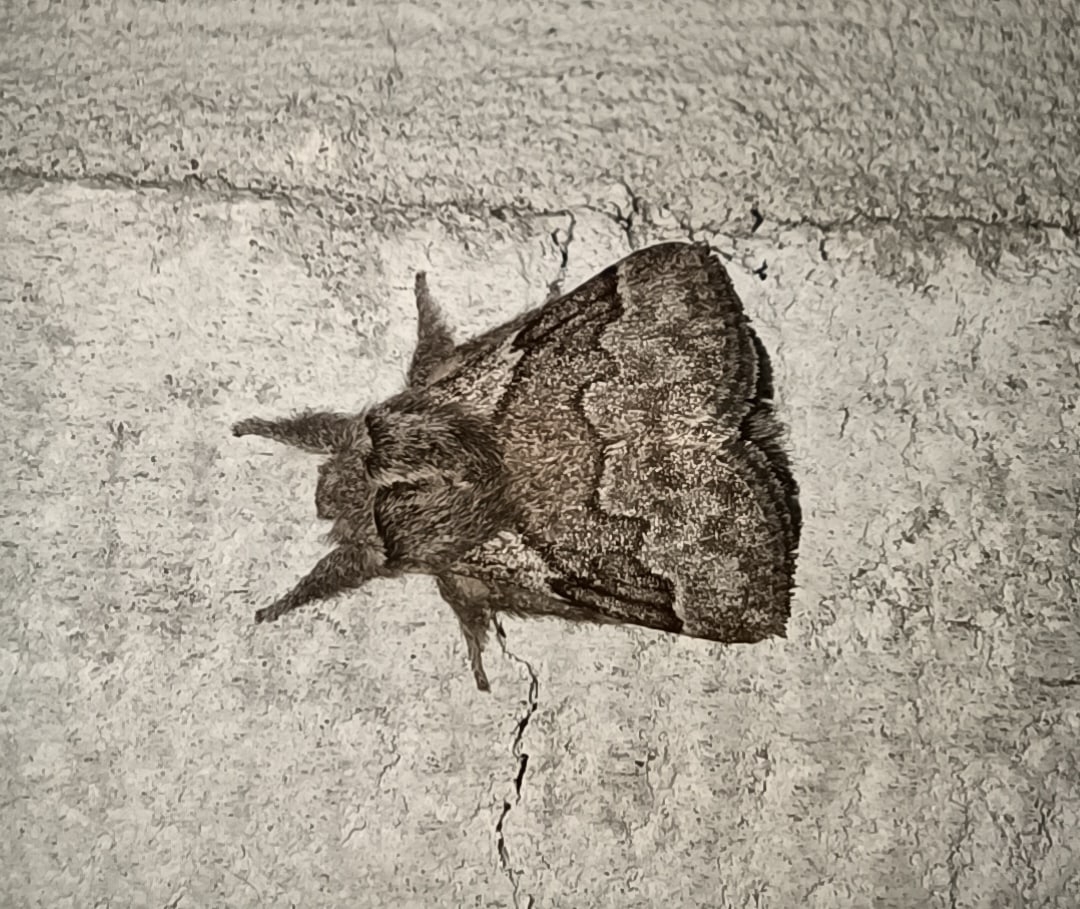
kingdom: Animalia
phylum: Arthropoda
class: Insecta
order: Lepidoptera
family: Lasiocampidae
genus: Trichiura
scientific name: Trichiura crataegi
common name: Pale eggar
